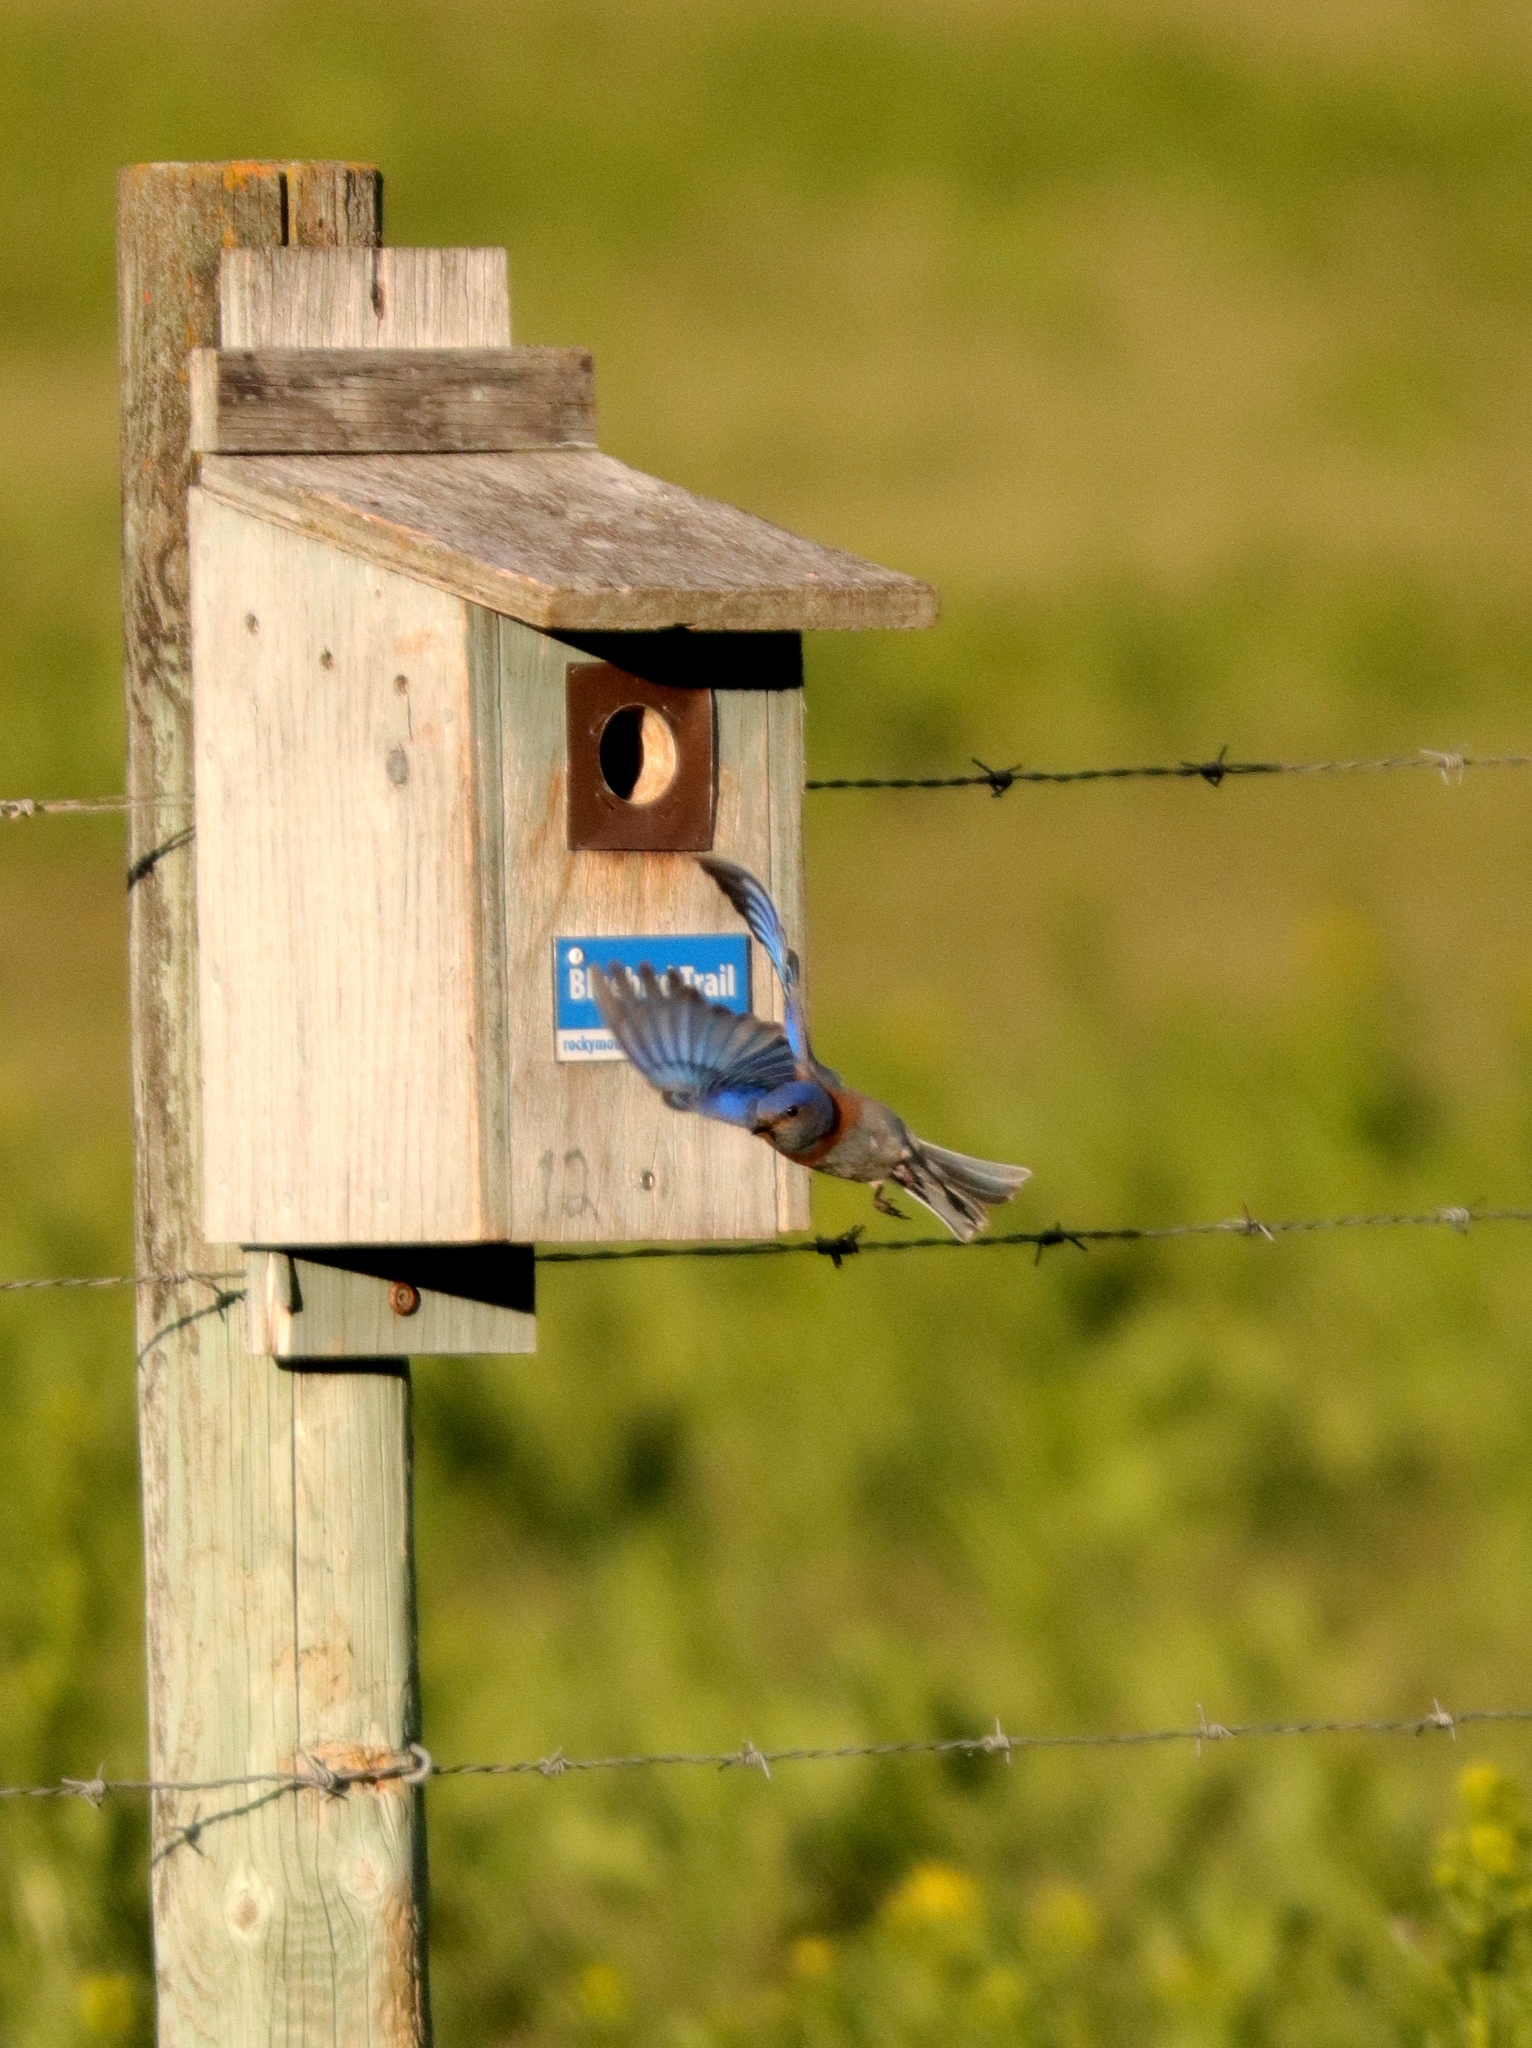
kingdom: Animalia
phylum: Chordata
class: Aves
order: Passeriformes
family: Turdidae
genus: Sialia
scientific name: Sialia mexicana
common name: Western bluebird
